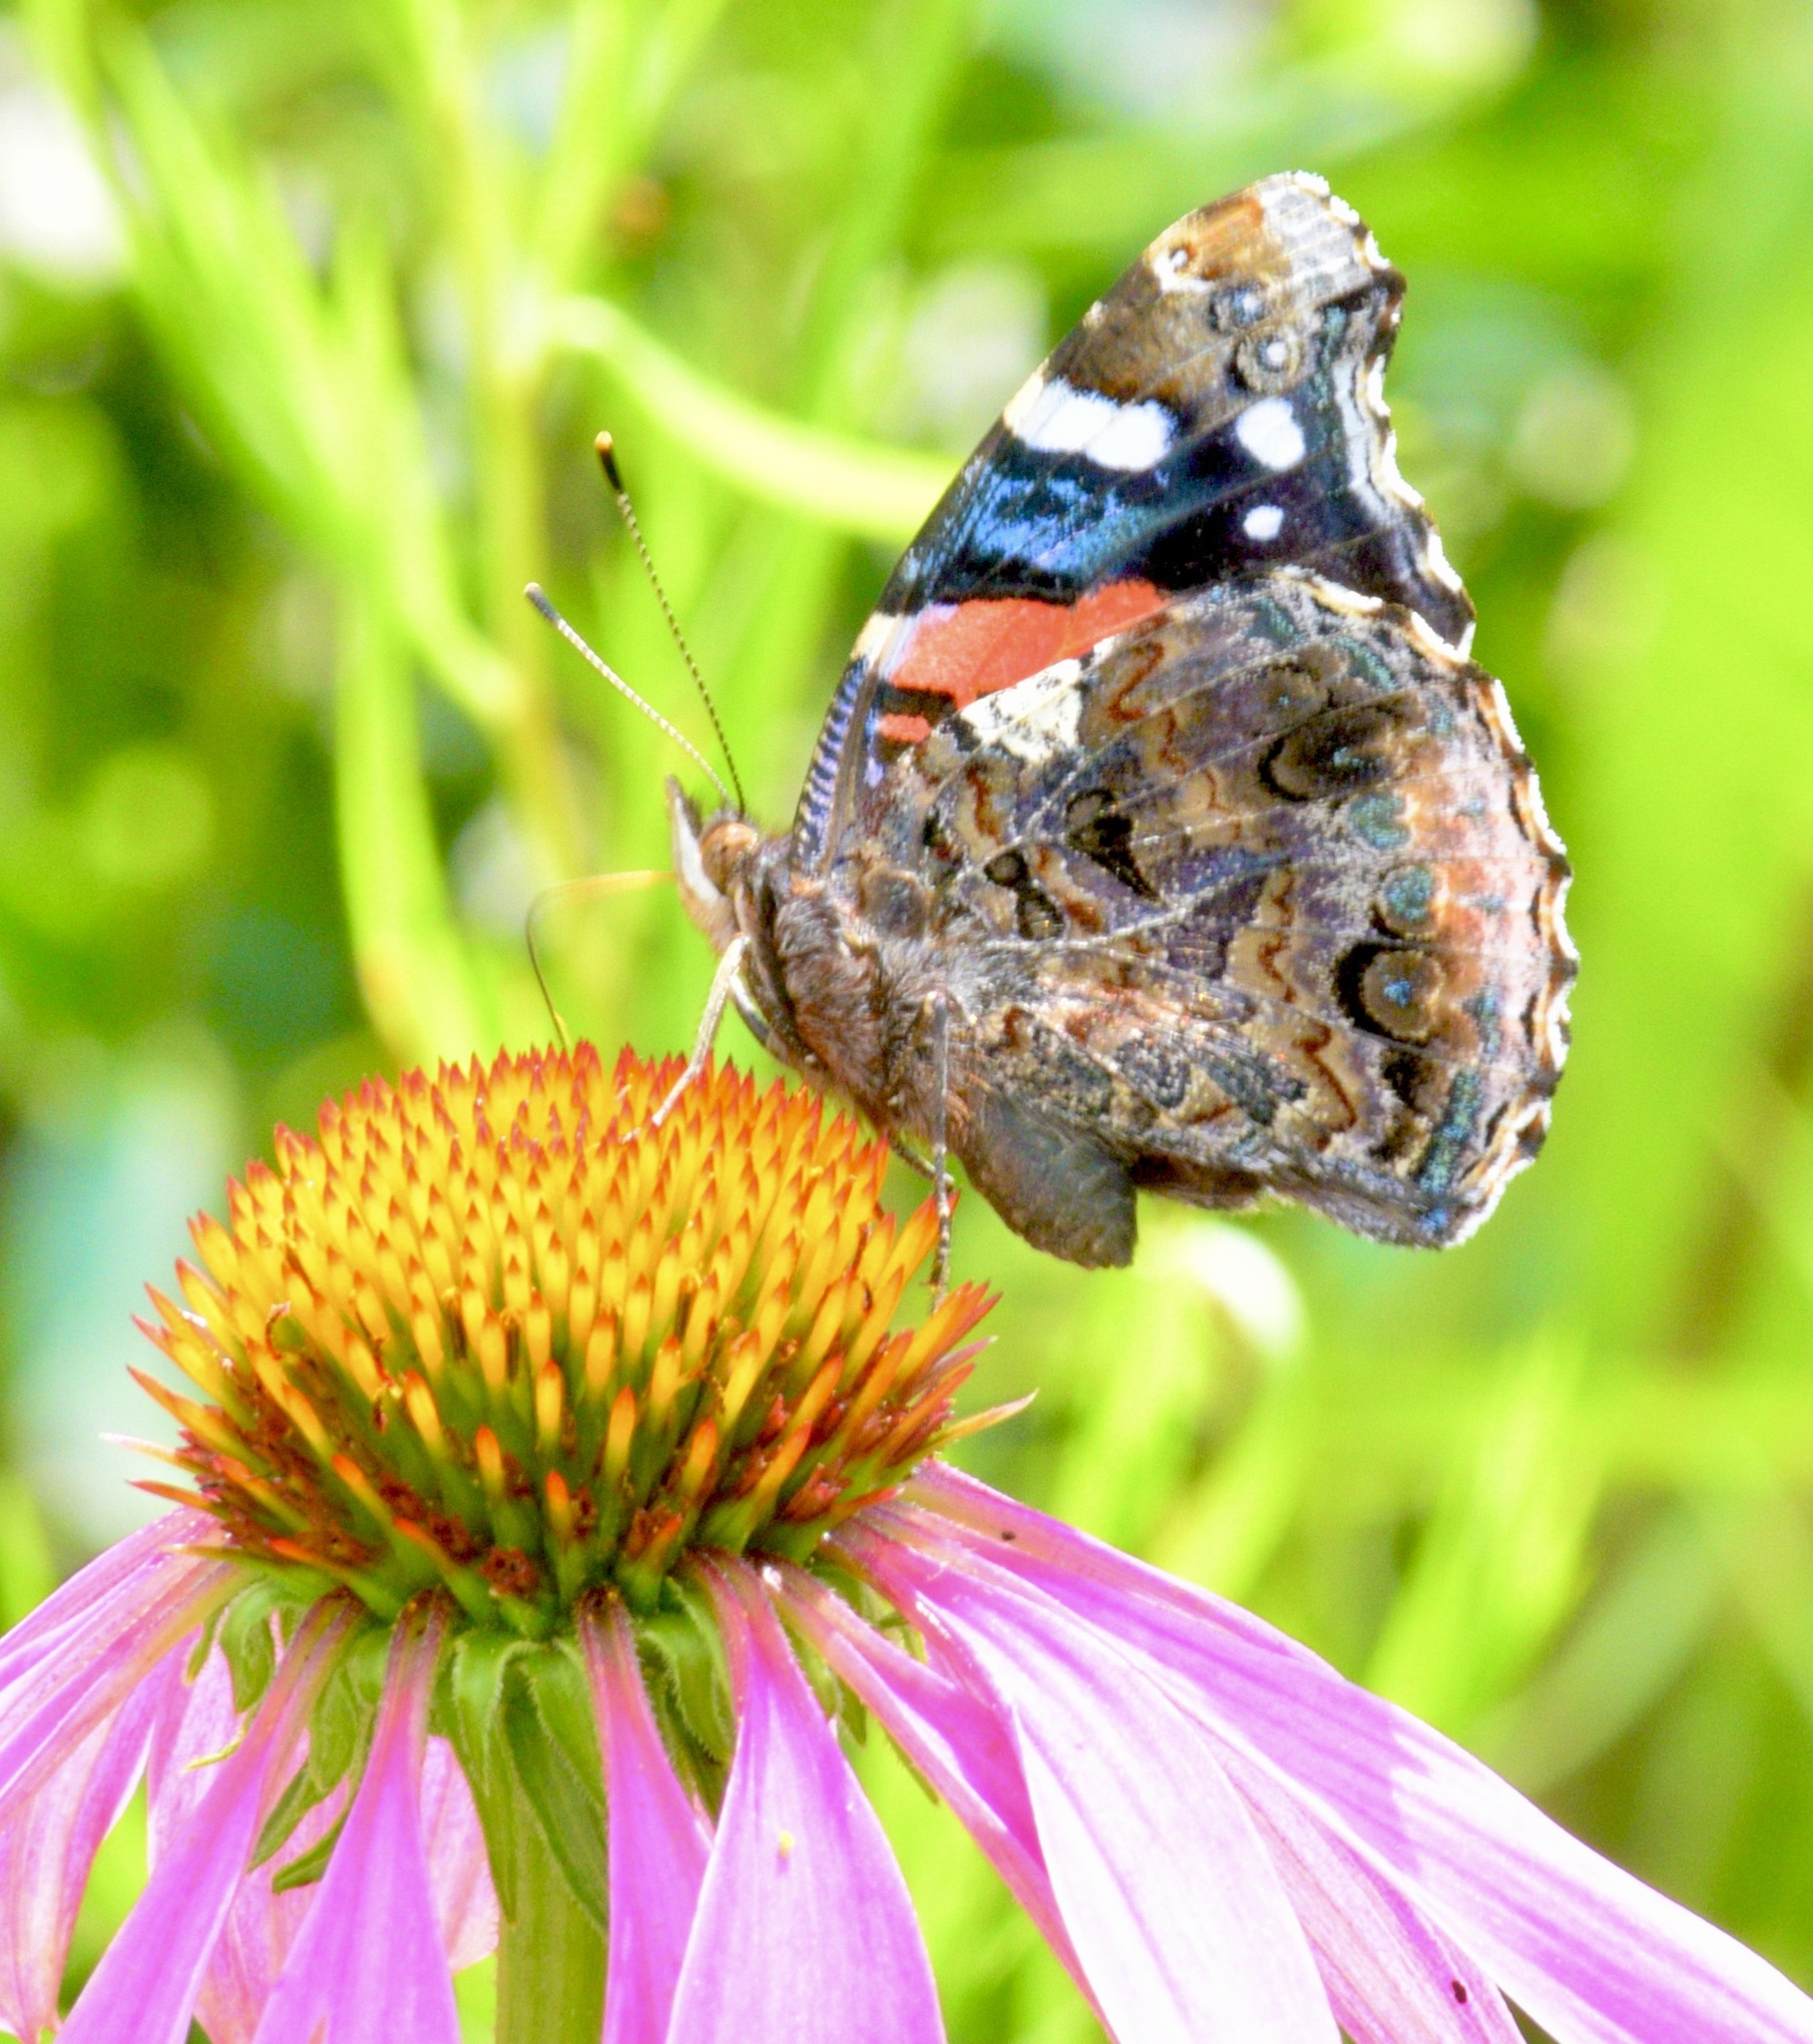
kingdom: Animalia
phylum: Arthropoda
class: Insecta
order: Lepidoptera
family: Nymphalidae
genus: Vanessa
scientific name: Vanessa atalanta
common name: Red admiral
